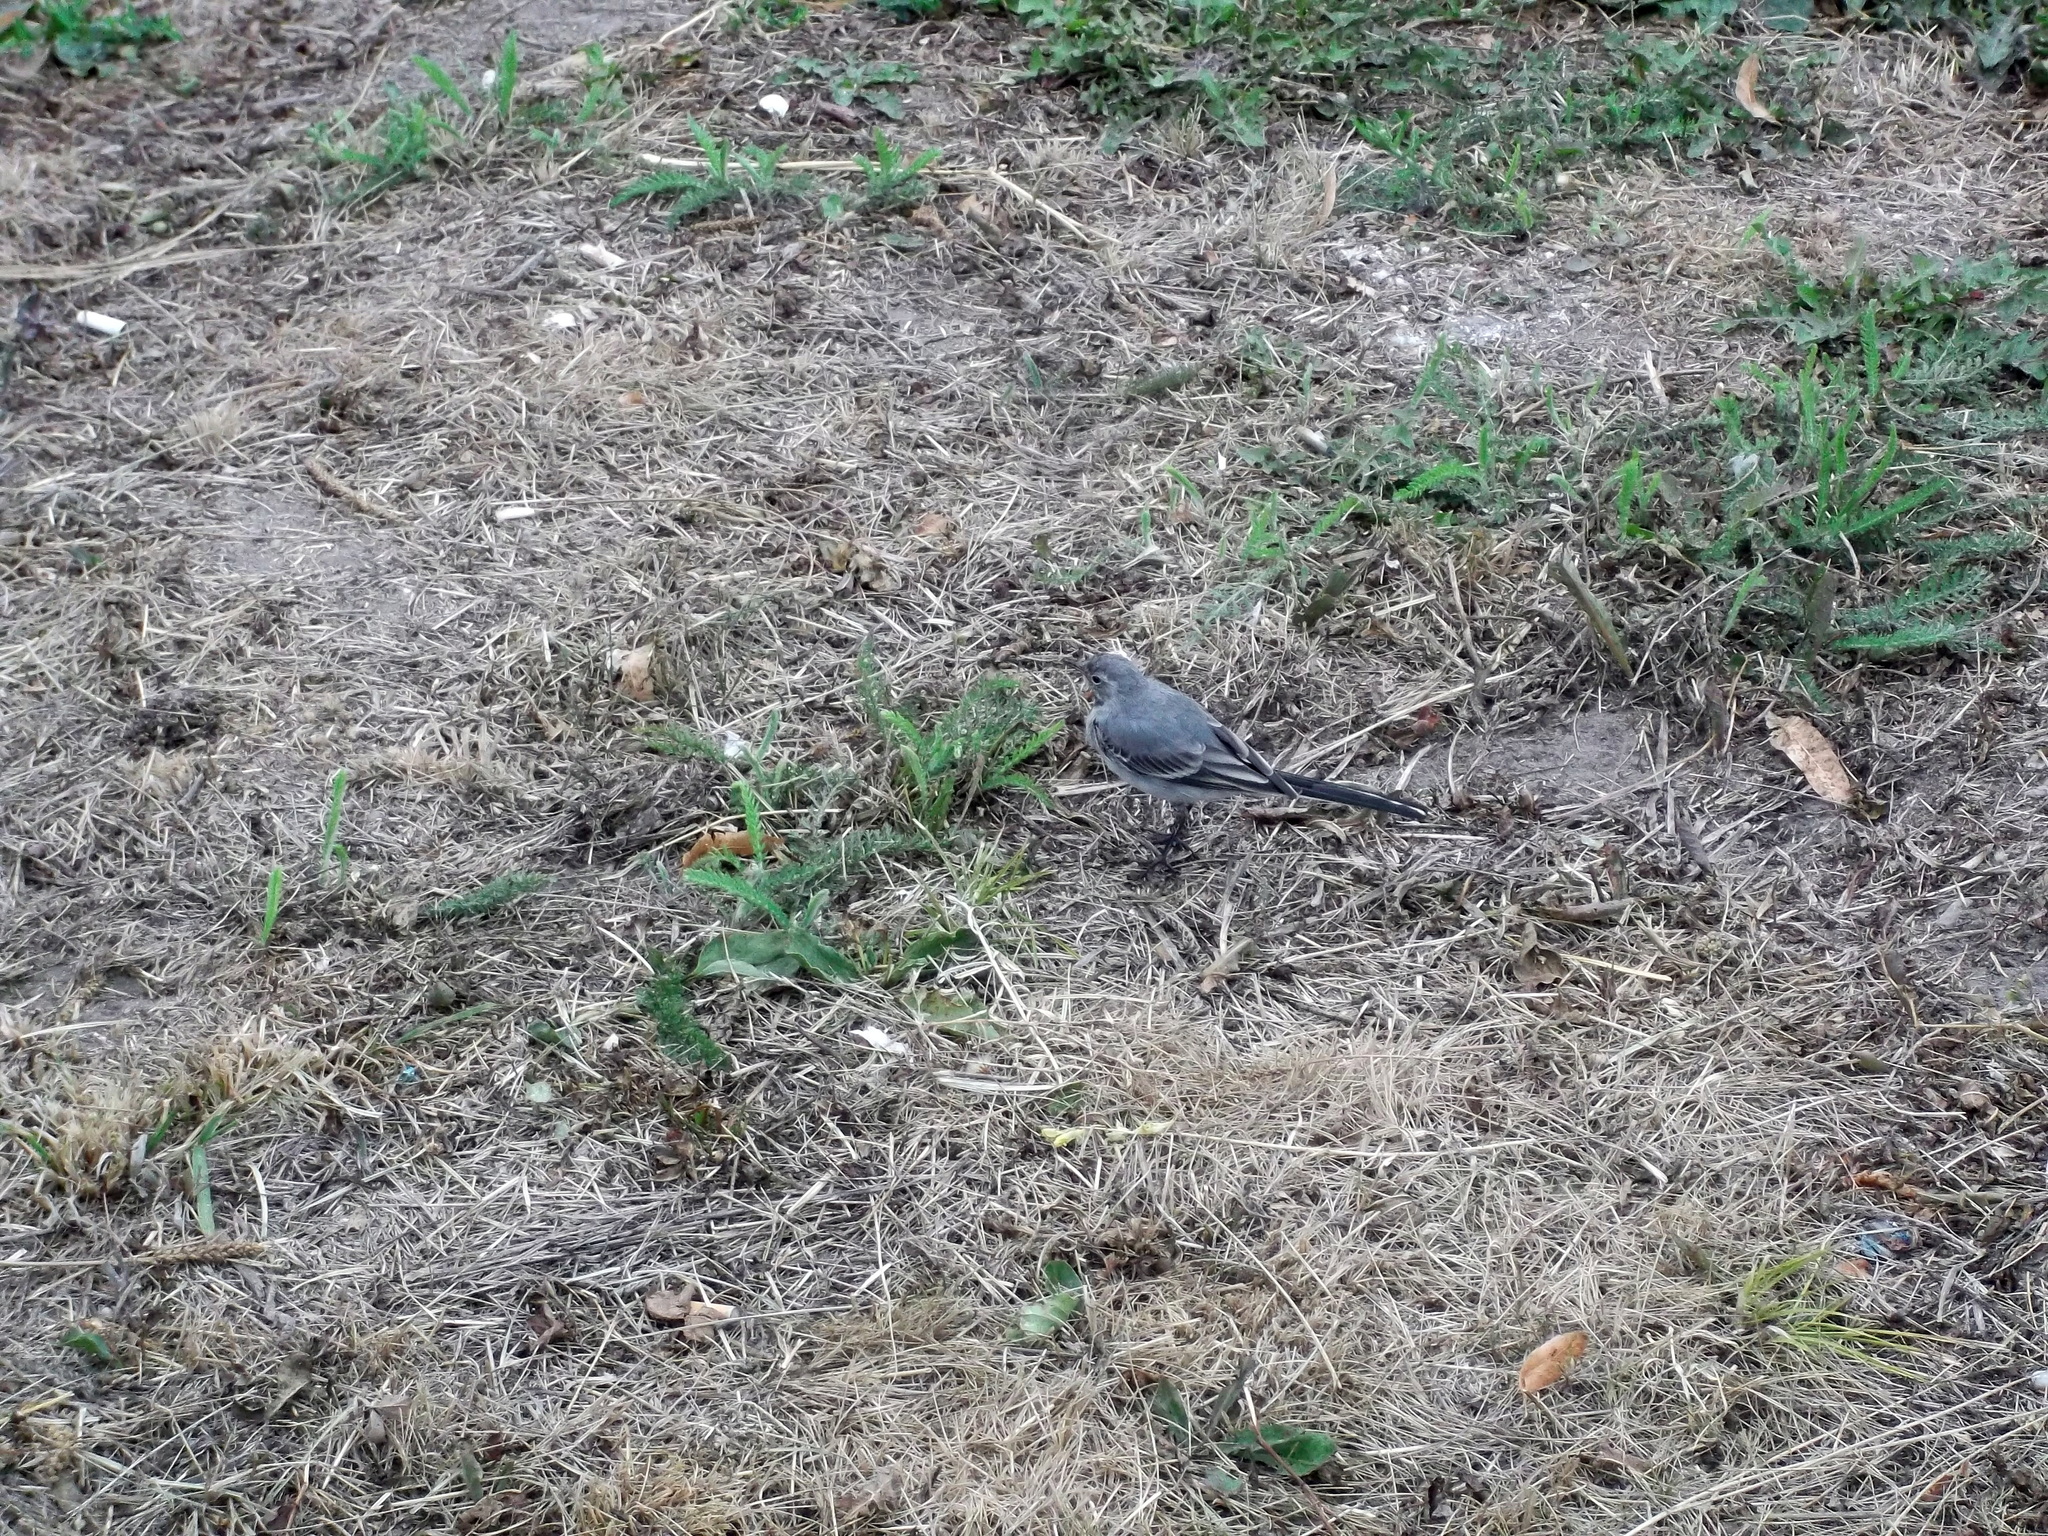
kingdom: Animalia
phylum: Chordata
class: Aves
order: Passeriformes
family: Motacillidae
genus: Motacilla
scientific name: Motacilla alba
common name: White wagtail
